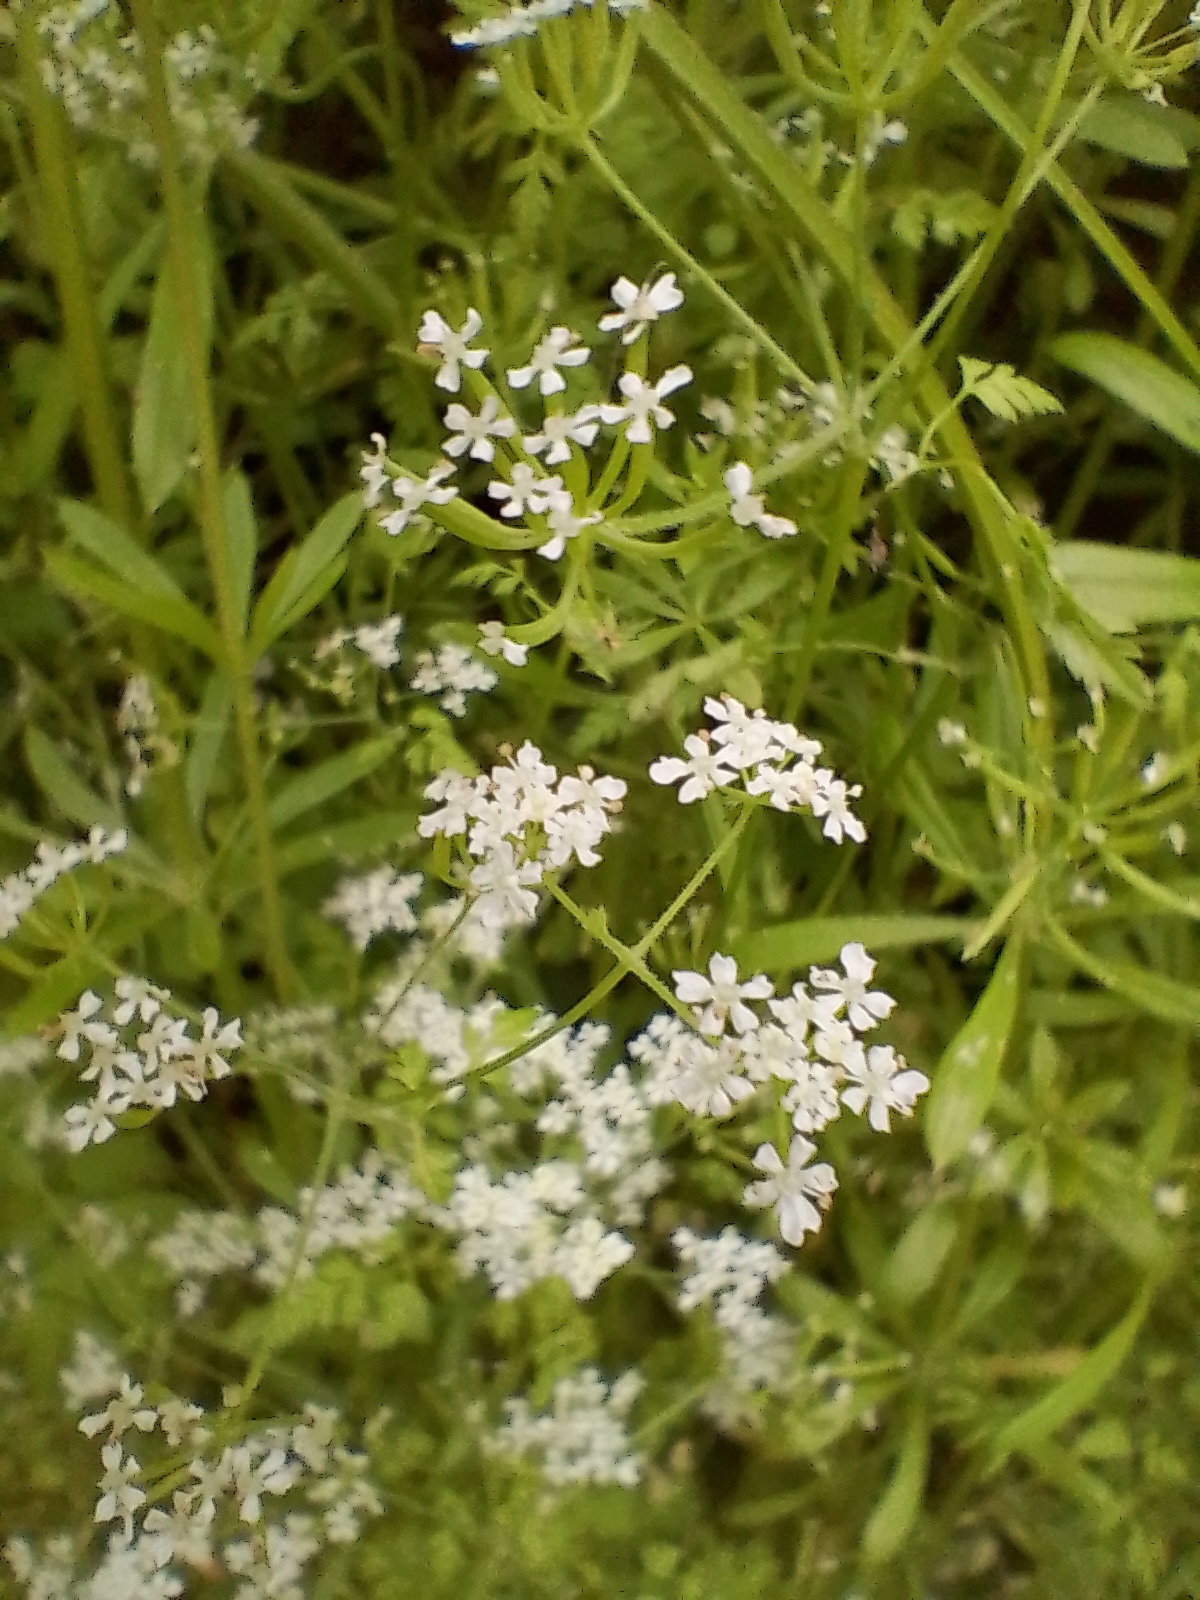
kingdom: Plantae
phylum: Tracheophyta
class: Magnoliopsida
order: Gentianales
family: Rubiaceae
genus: Galium
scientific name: Galium aparine
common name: Cleavers
